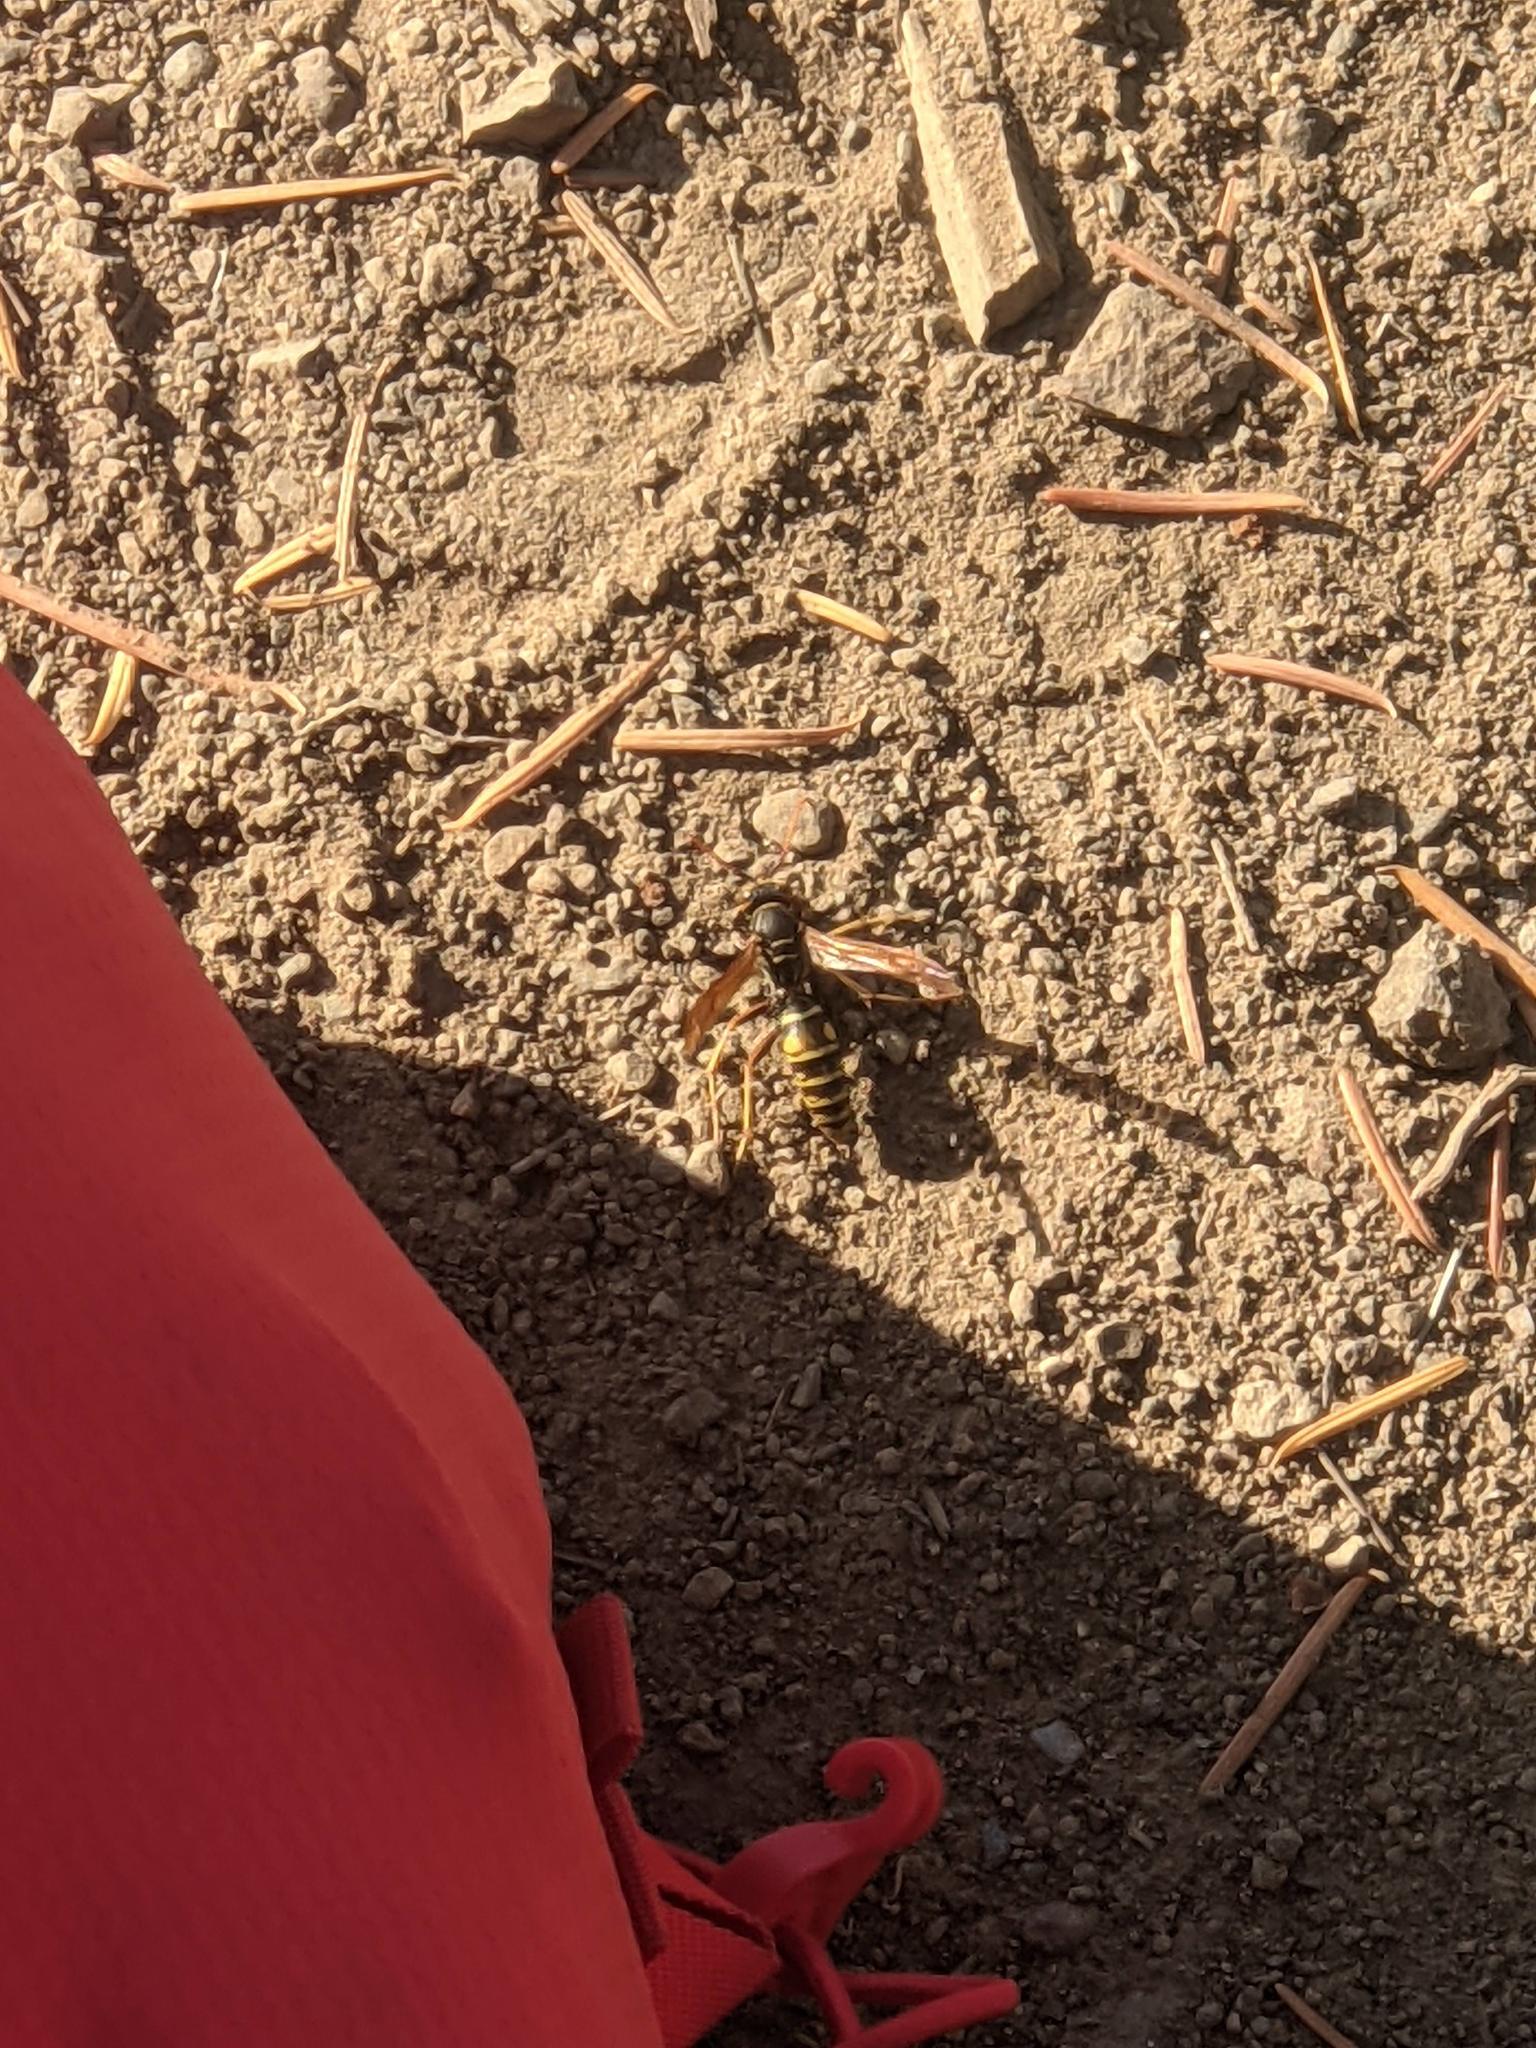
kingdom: Animalia
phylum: Arthropoda
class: Insecta
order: Hymenoptera
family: Eumenidae
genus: Polistes
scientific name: Polistes aurifer
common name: Paper wasp
